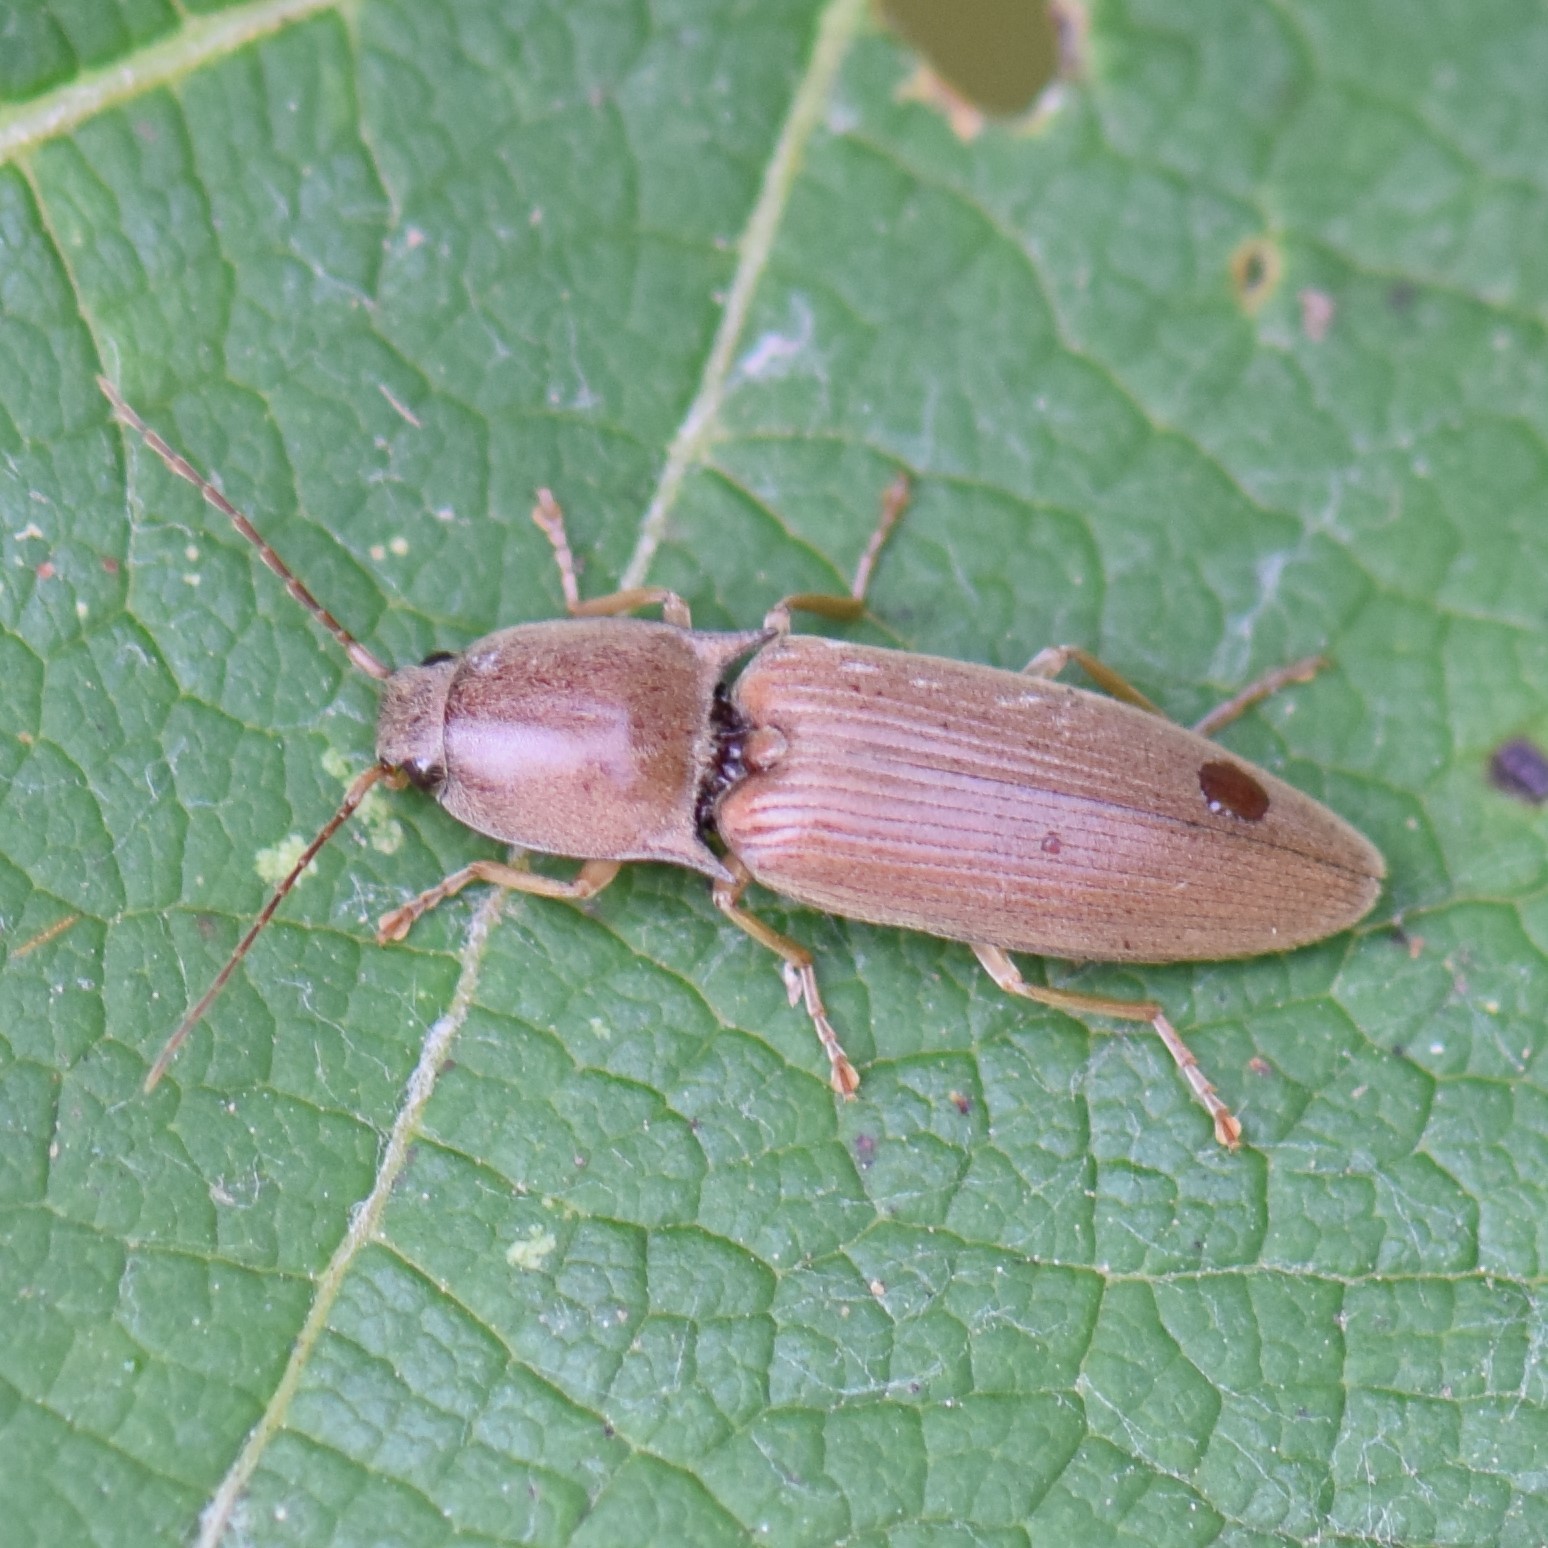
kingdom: Animalia
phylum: Arthropoda
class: Insecta
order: Coleoptera
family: Elateridae
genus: Monocrepidius
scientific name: Monocrepidius lividus
